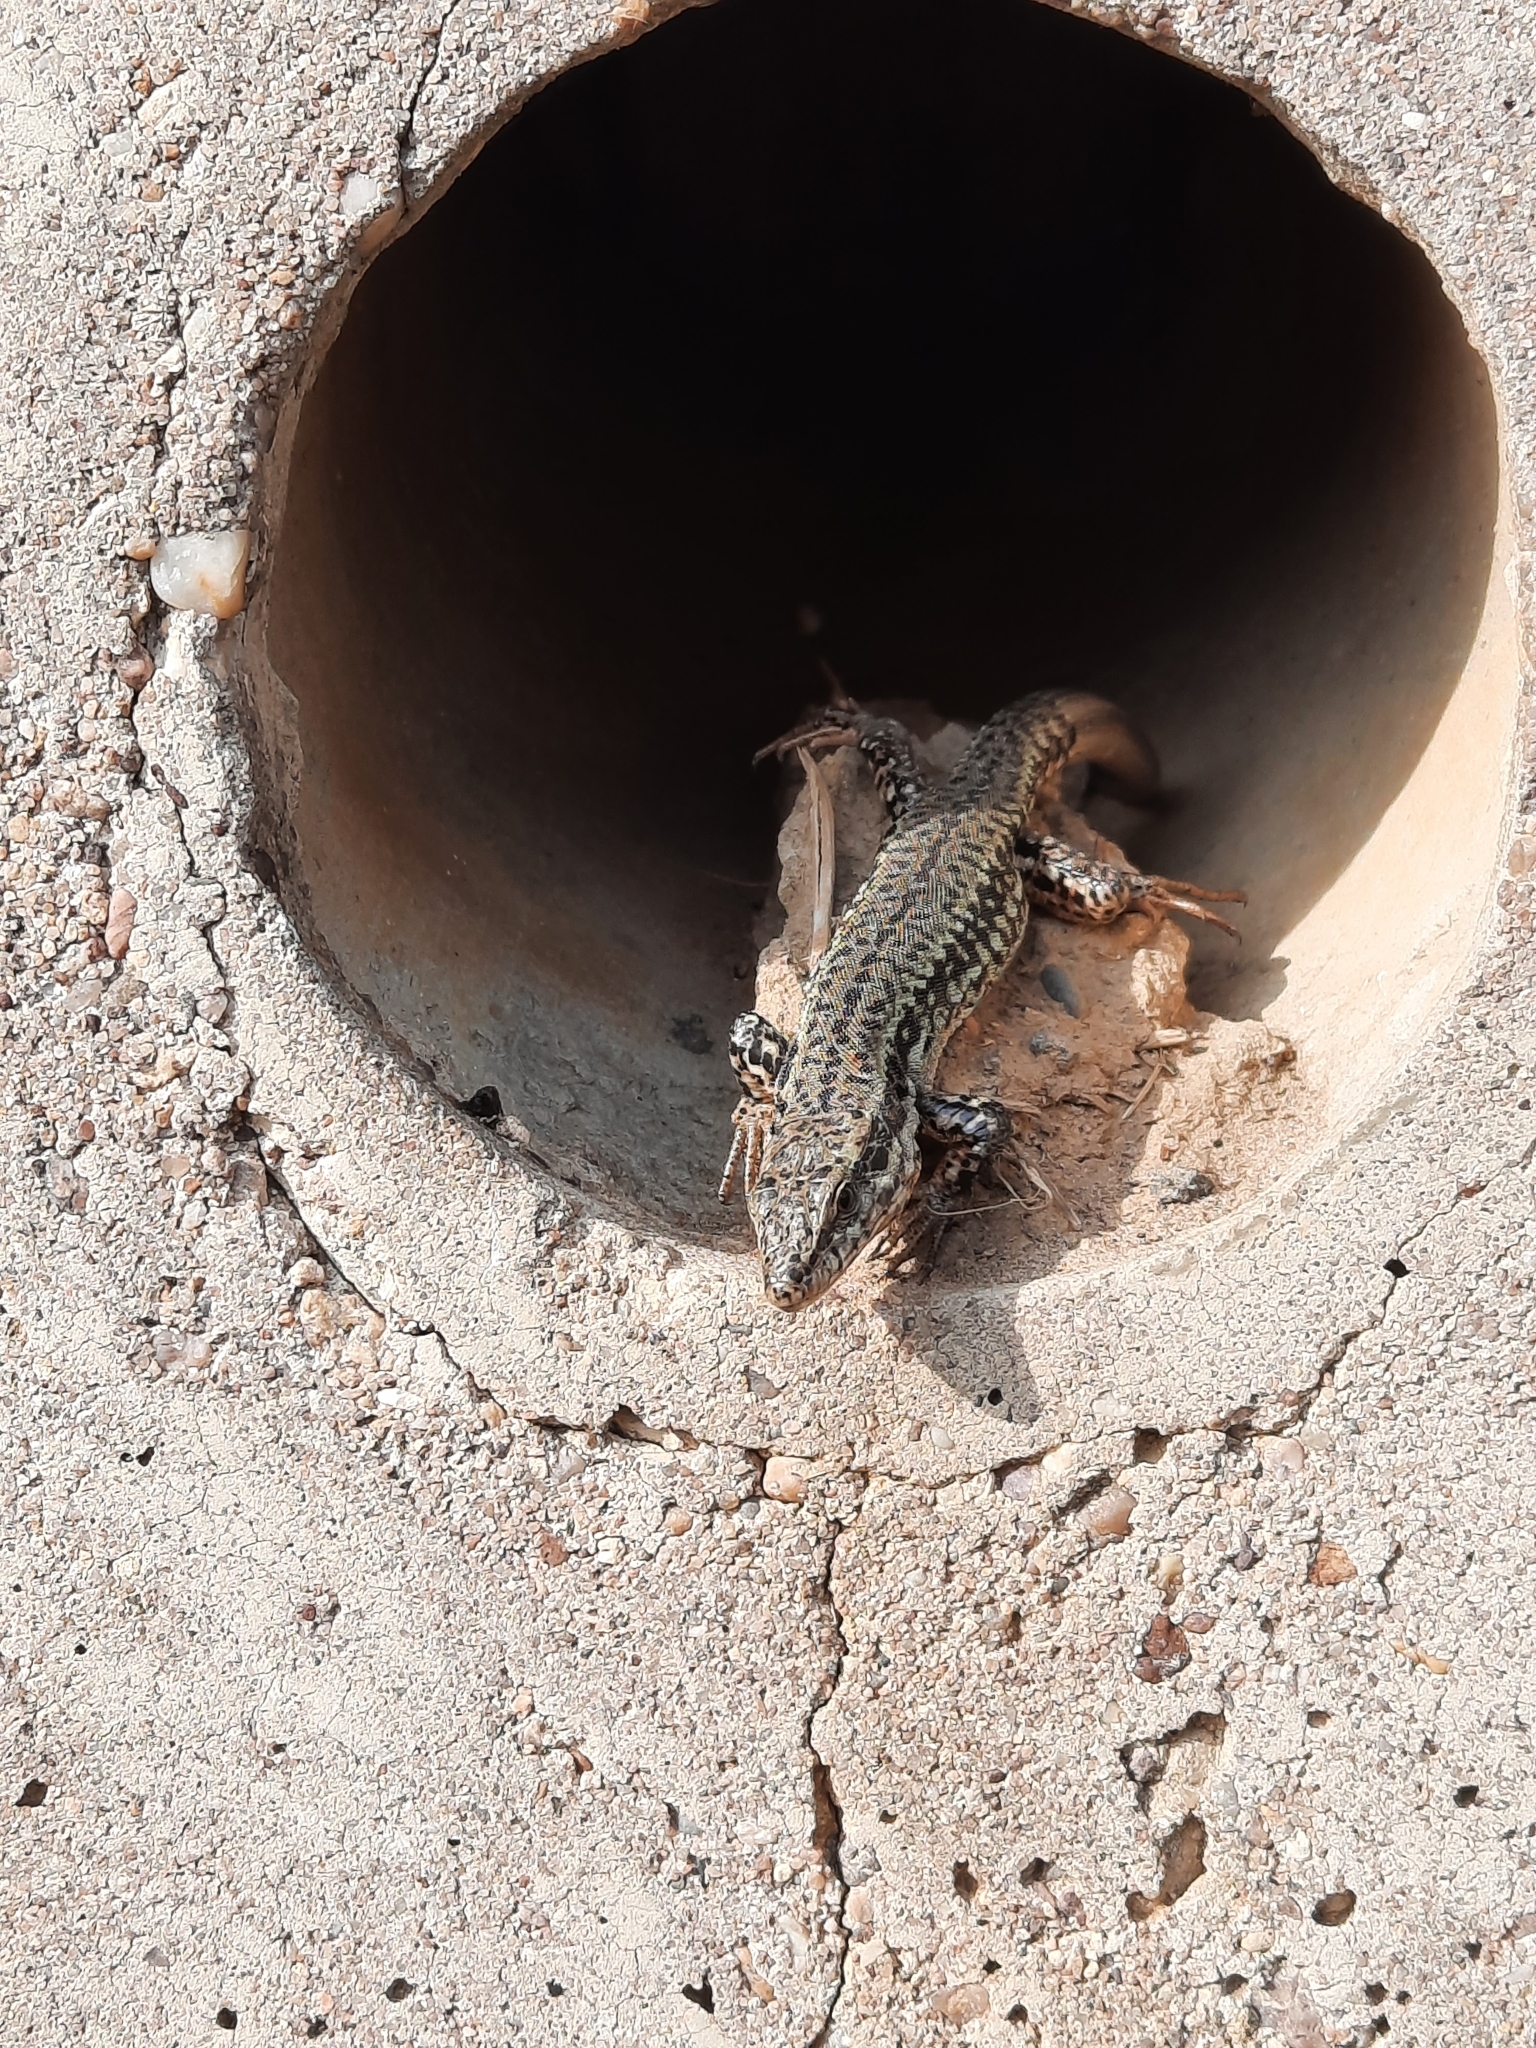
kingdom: Animalia
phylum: Chordata
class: Squamata
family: Lacertidae
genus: Podarcis
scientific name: Podarcis muralis
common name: Common wall lizard
